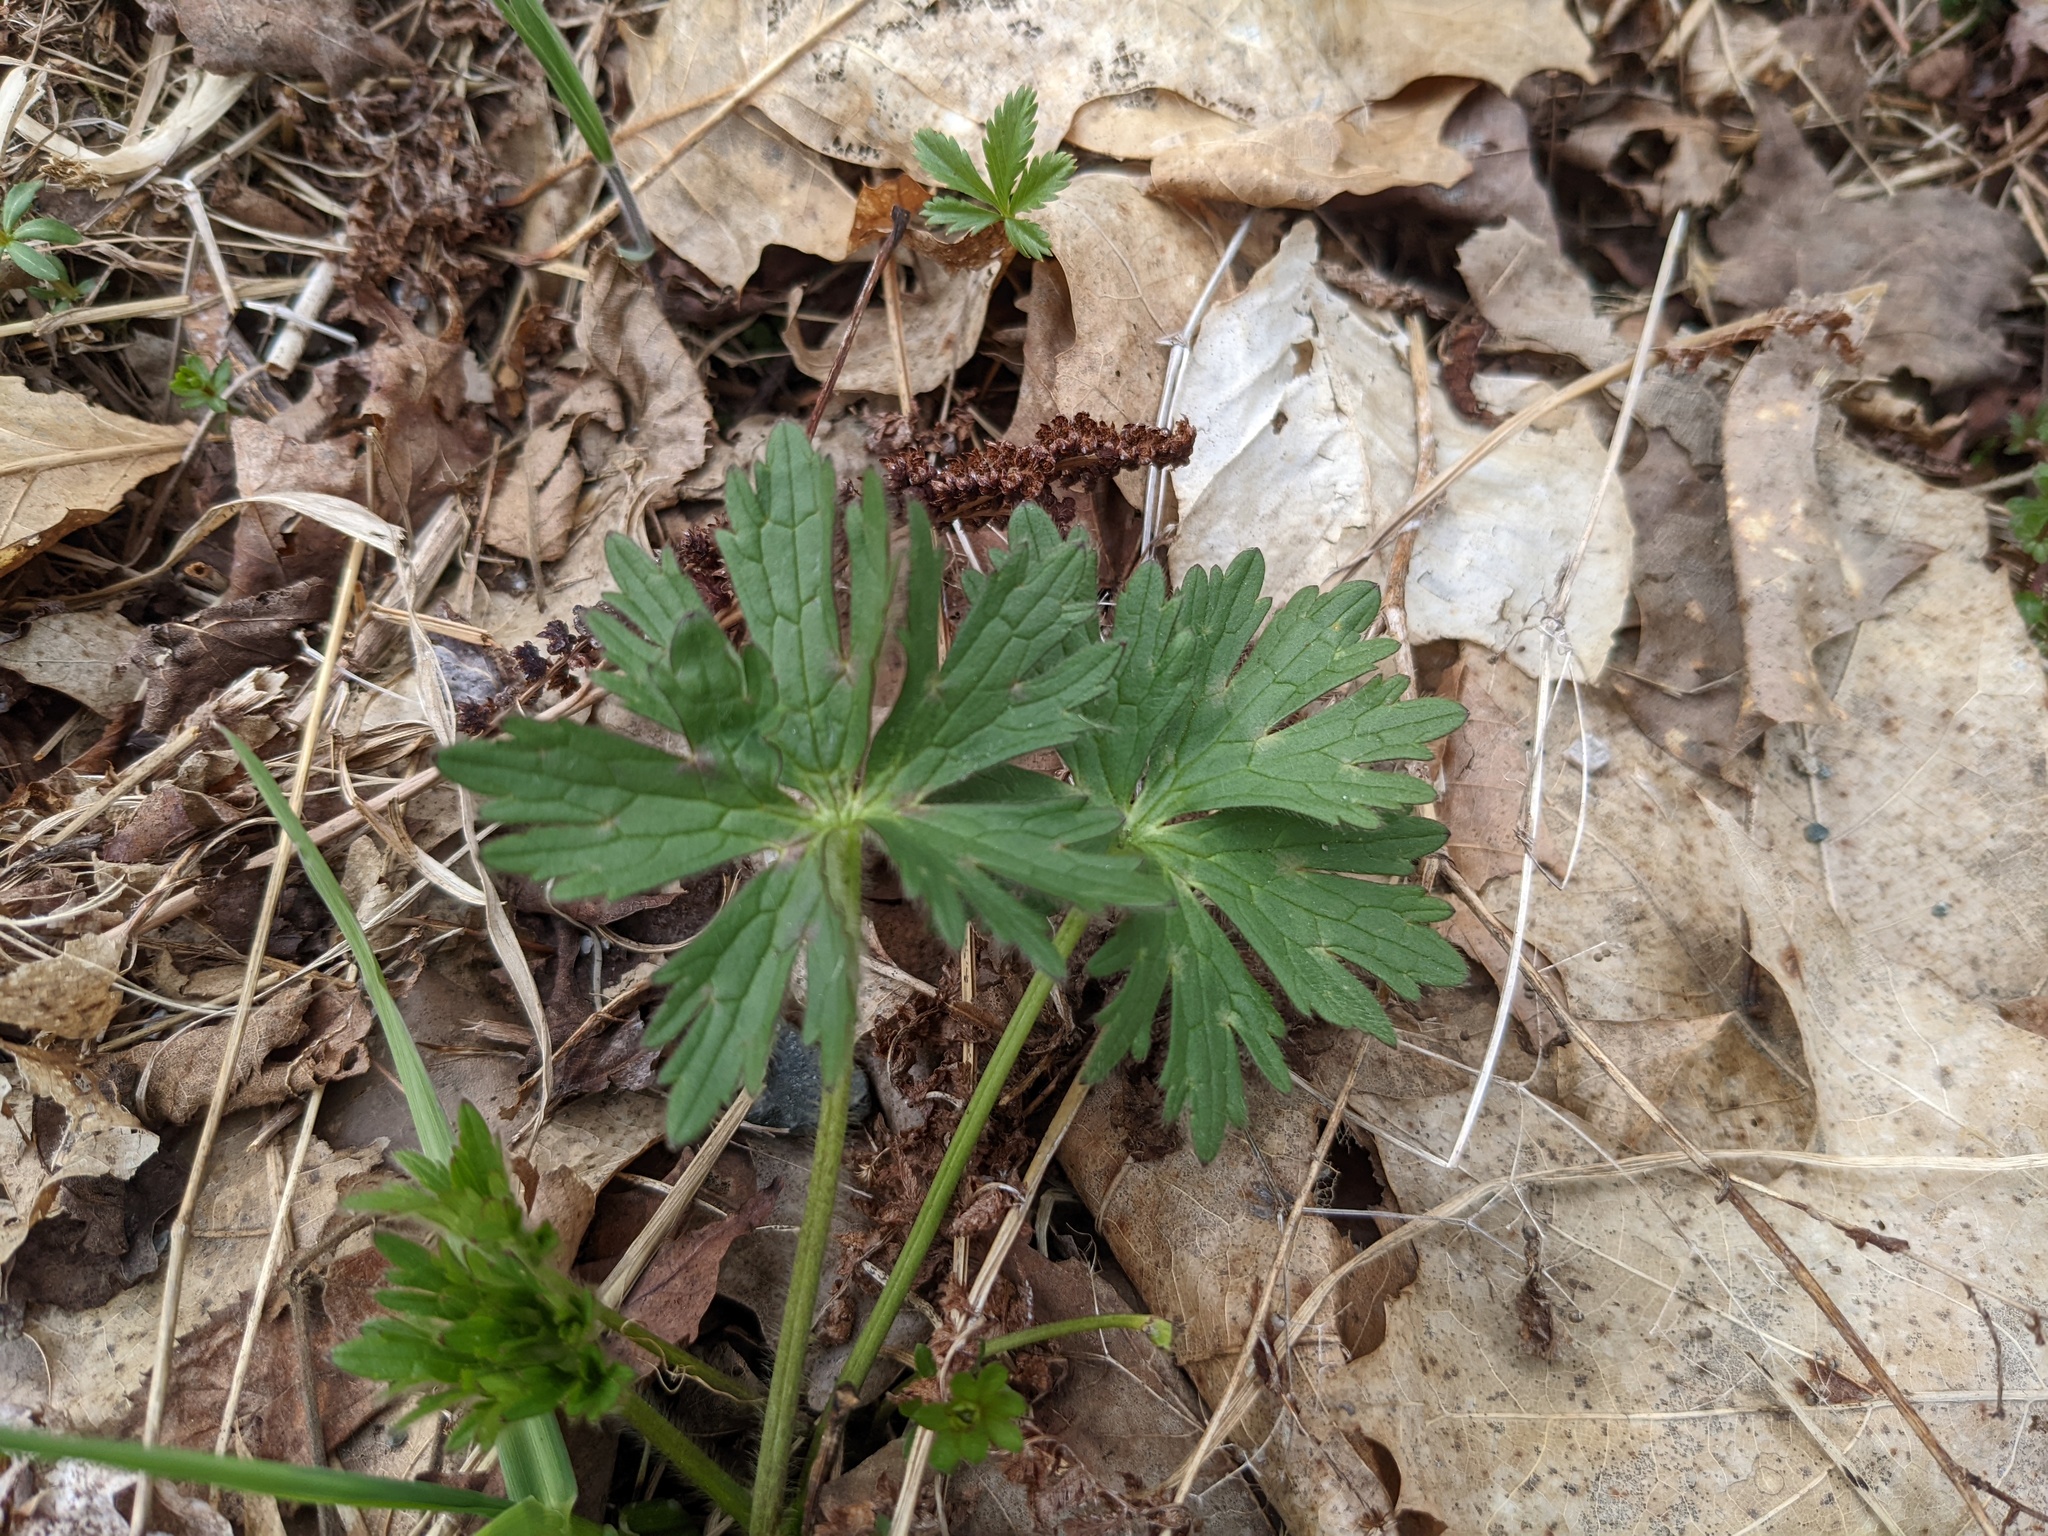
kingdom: Plantae
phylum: Tracheophyta
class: Magnoliopsida
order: Geraniales
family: Geraniaceae
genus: Geranium
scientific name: Geranium maculatum
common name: Spotted geranium
